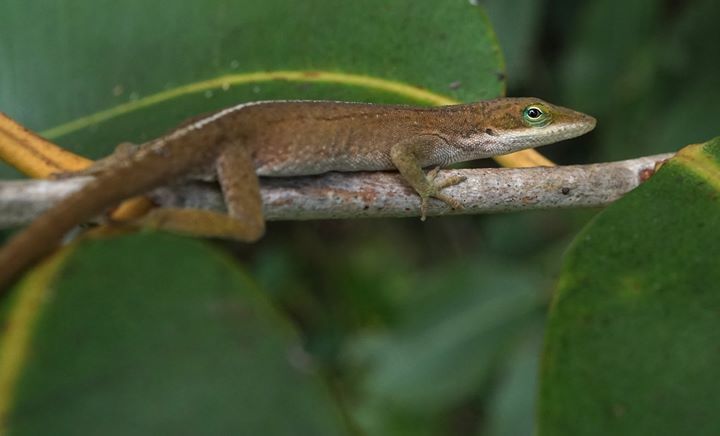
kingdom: Animalia
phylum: Chordata
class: Squamata
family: Dactyloidae
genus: Anolis
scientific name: Anolis carolinensis
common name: Green anole
